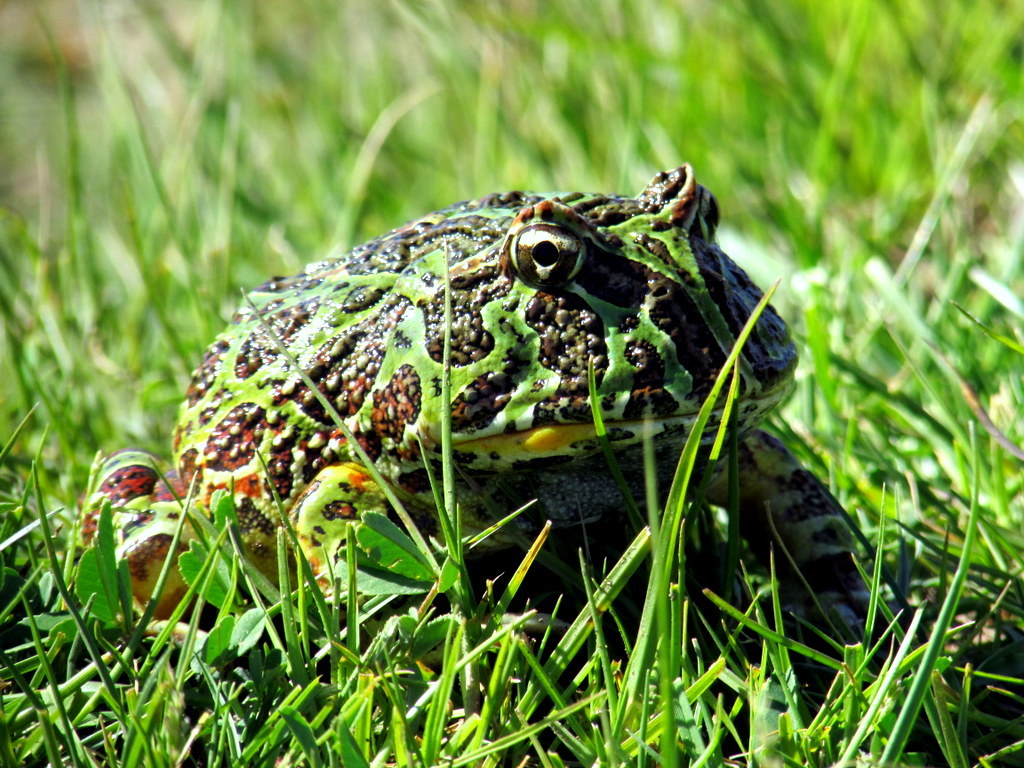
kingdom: Animalia
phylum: Chordata
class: Amphibia
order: Anura
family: Ceratophryidae
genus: Ceratophrys
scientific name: Ceratophrys ornata
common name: Argentinean horned frog
